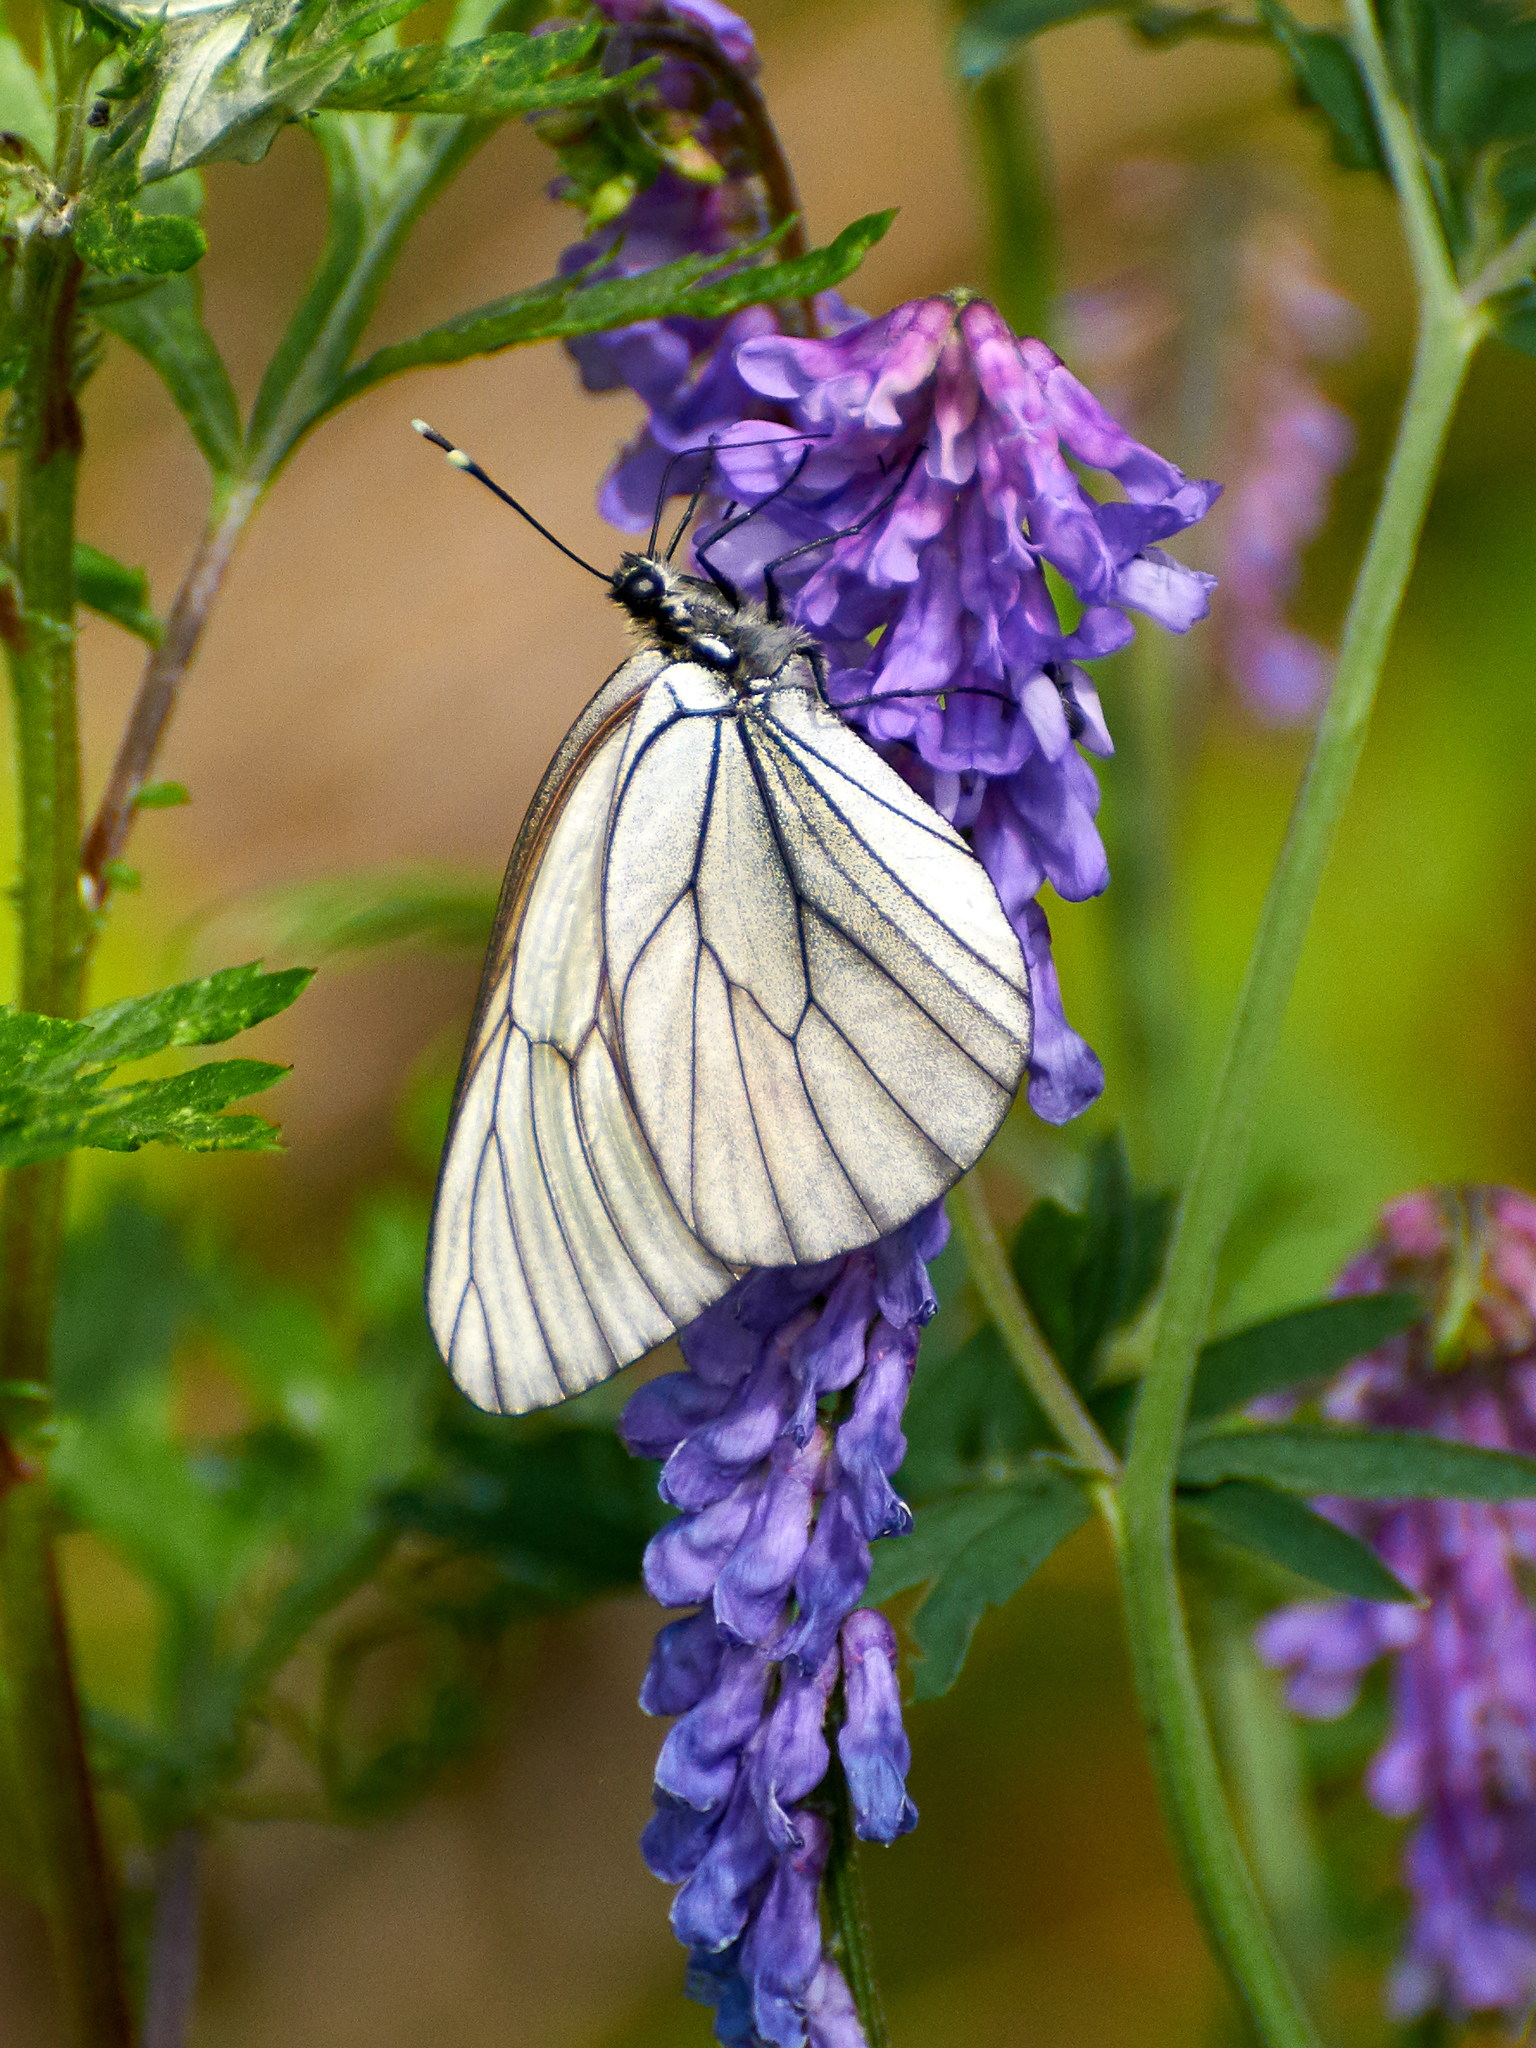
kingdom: Animalia
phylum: Arthropoda
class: Insecta
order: Lepidoptera
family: Pieridae
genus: Aporia
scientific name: Aporia crataegi
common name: Black-veined white
